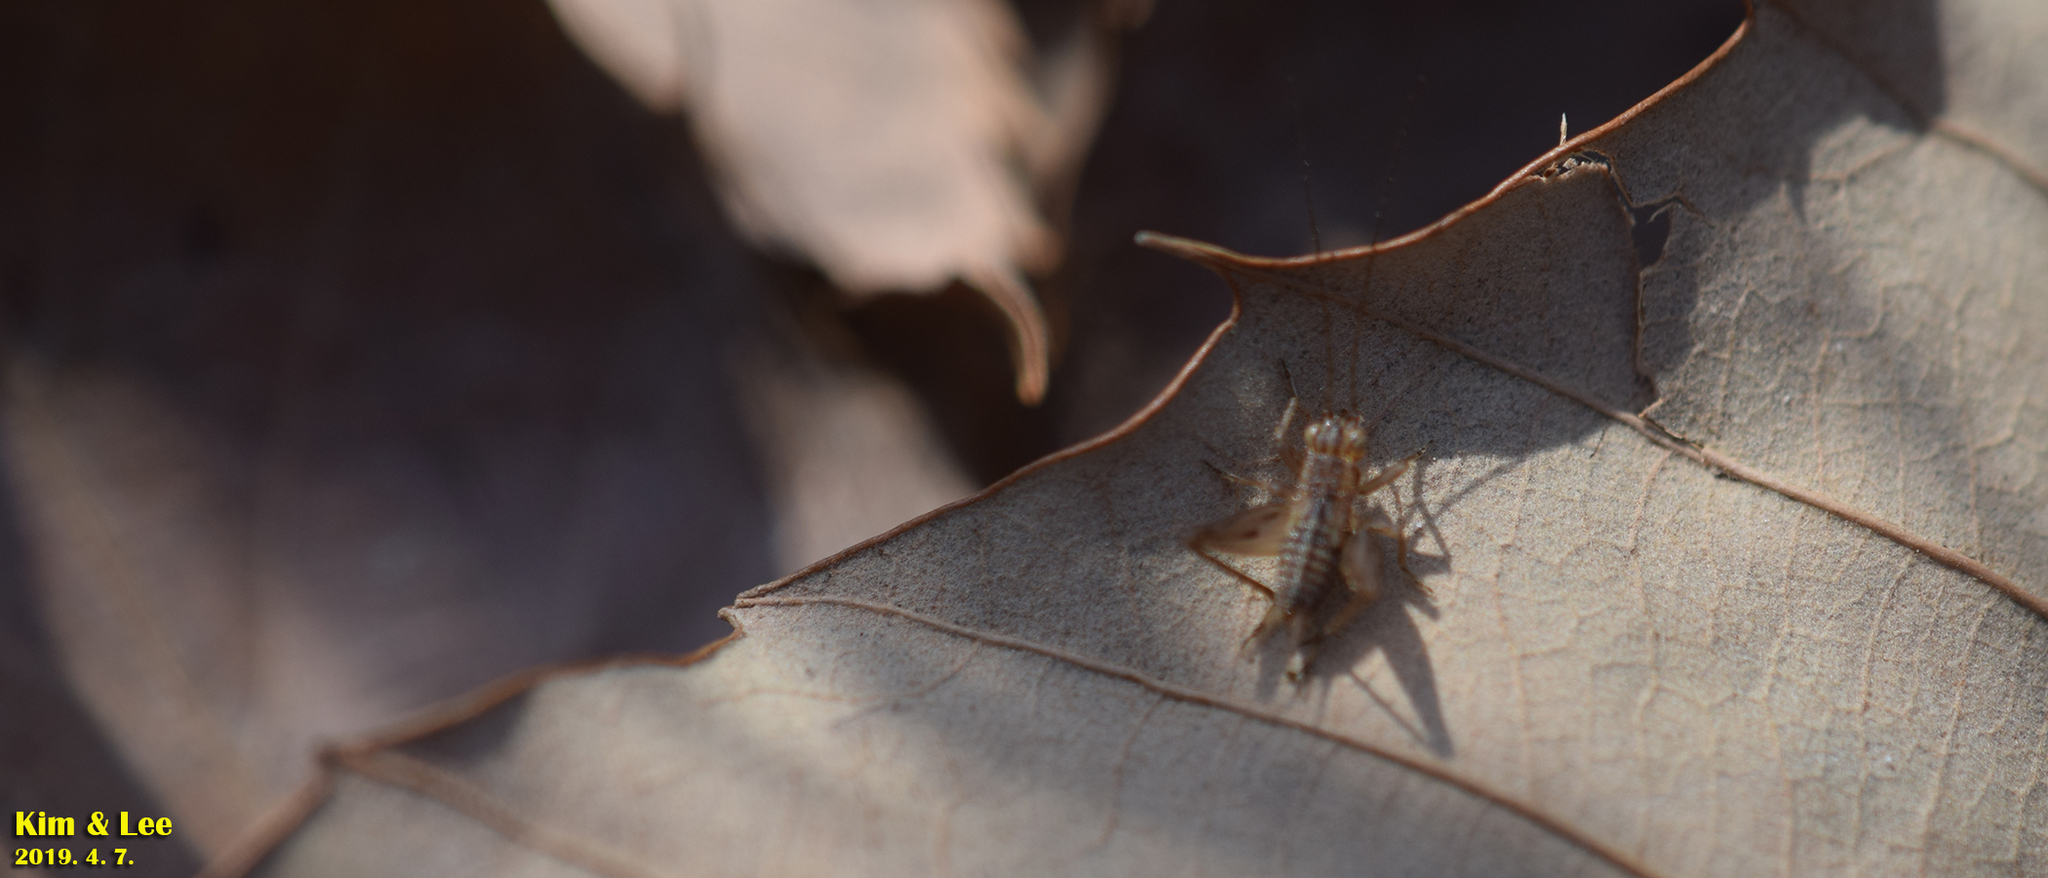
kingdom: Animalia
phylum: Arthropoda
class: Insecta
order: Orthoptera
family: Trigonidiidae
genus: Trigonidium
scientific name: Trigonidium japonicum
